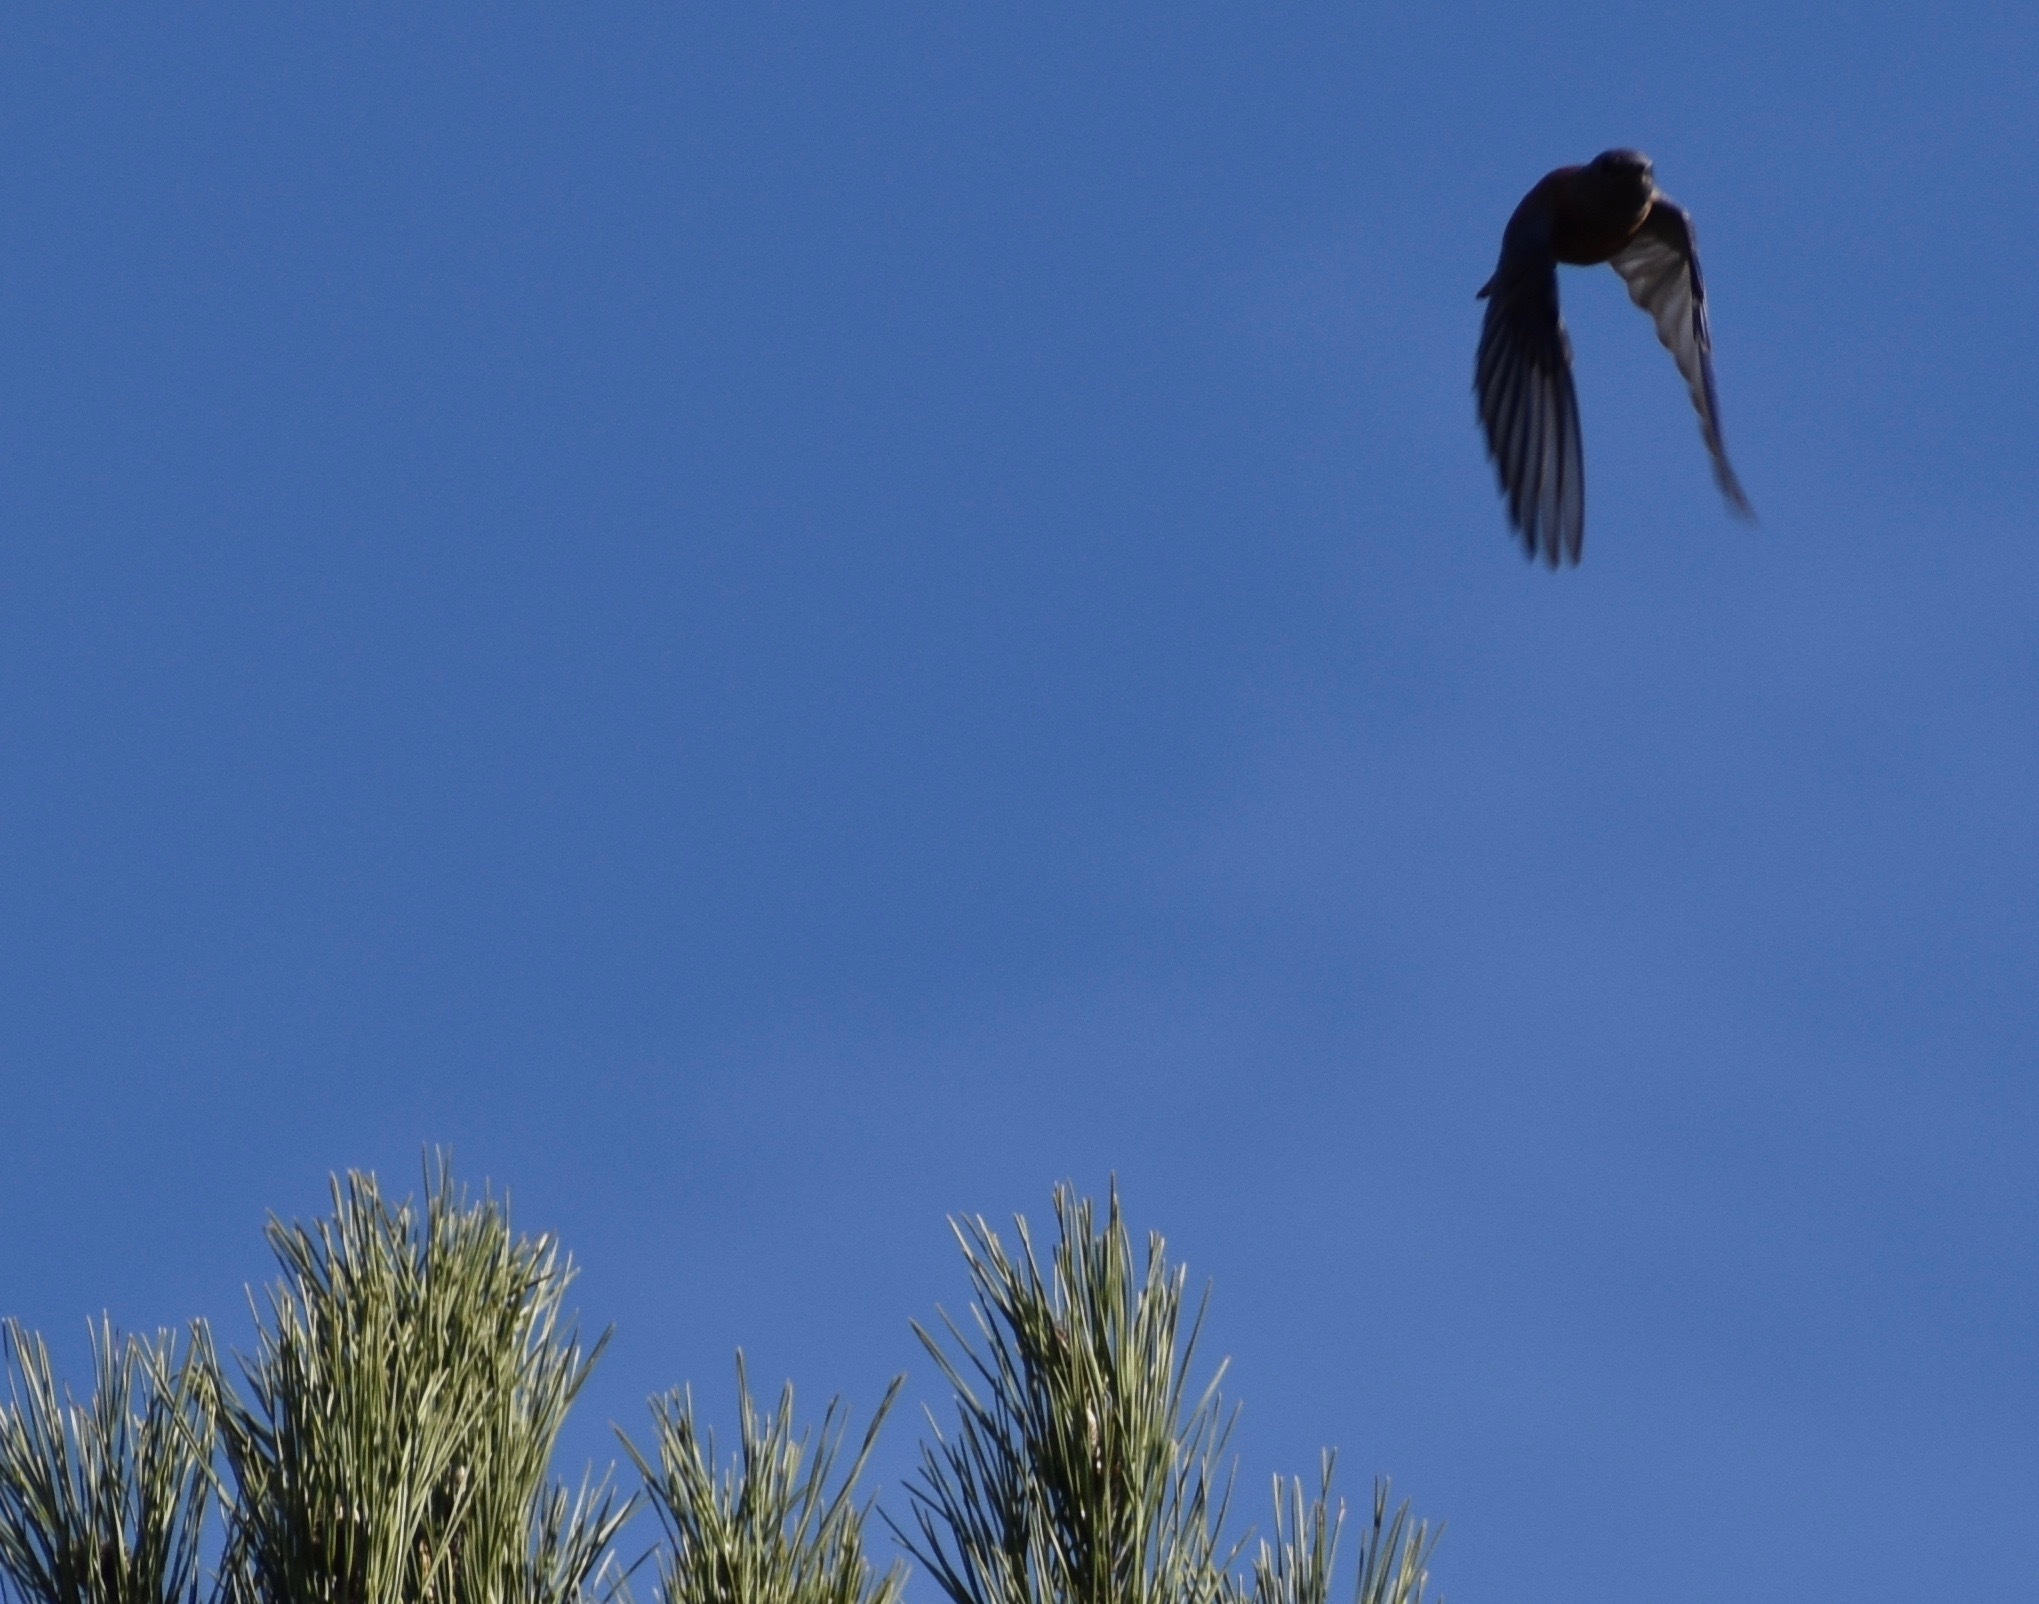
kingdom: Animalia
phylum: Chordata
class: Aves
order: Passeriformes
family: Turdidae
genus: Sialia
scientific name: Sialia mexicana
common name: Western bluebird
